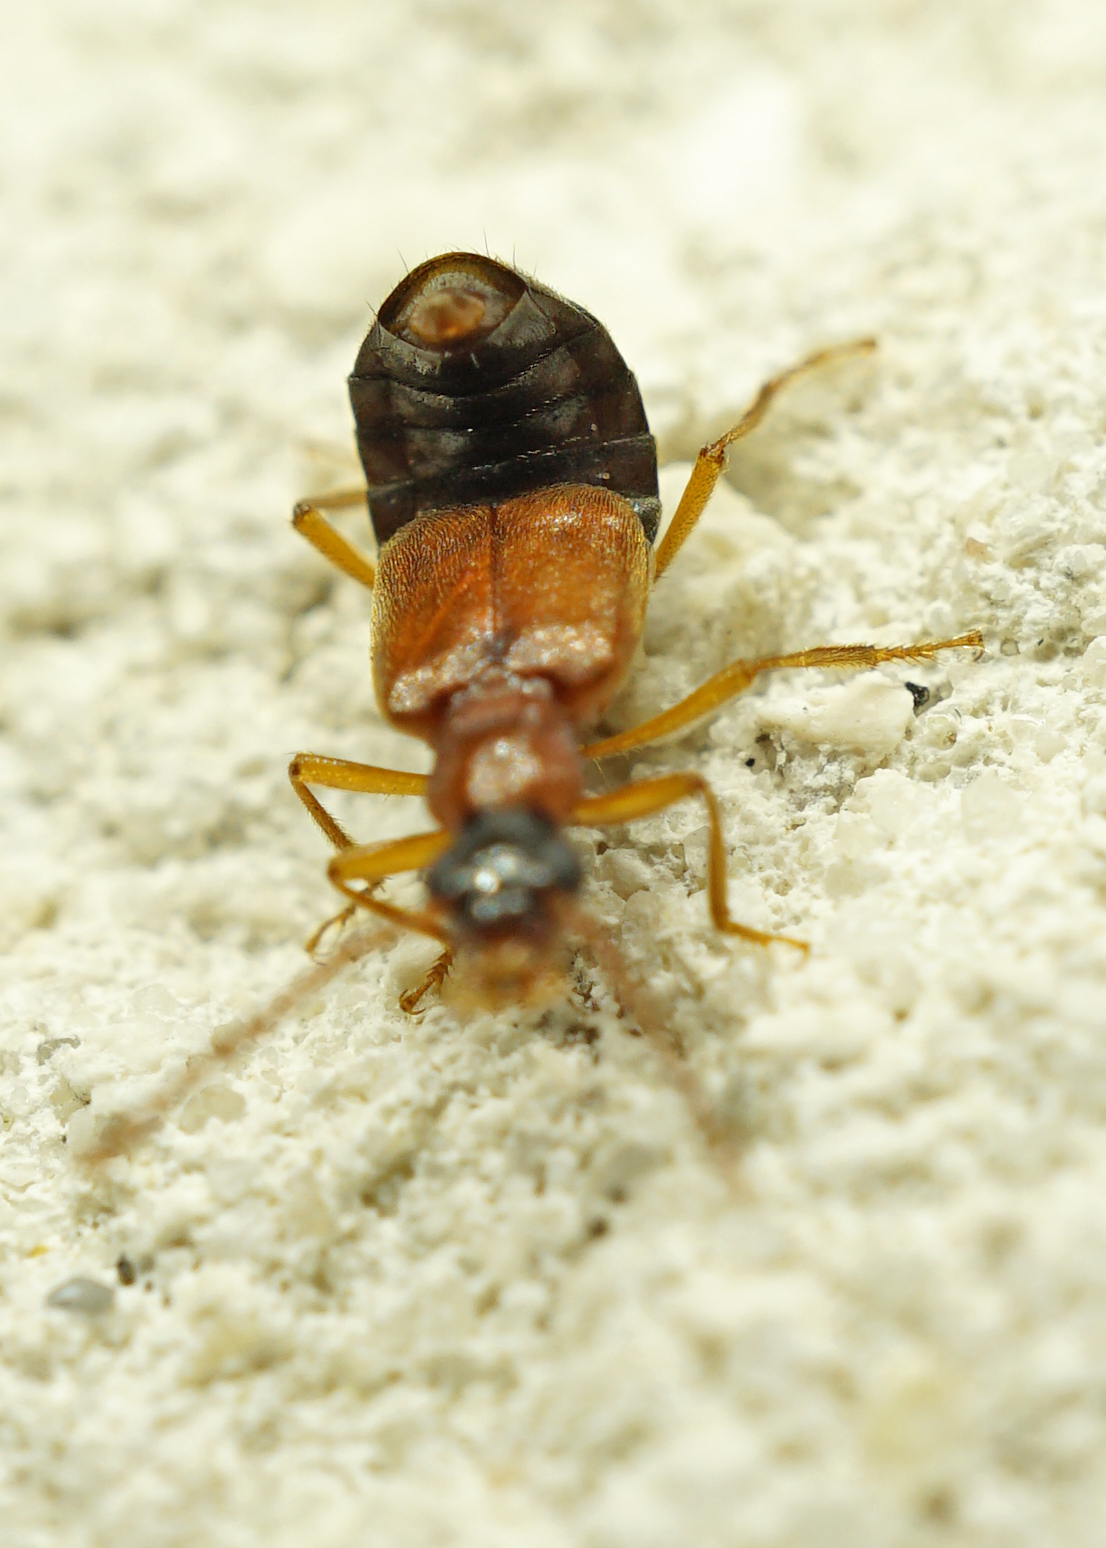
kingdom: Animalia
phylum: Arthropoda
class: Insecta
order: Coleoptera
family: Staphylinidae
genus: Deleaster
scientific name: Deleaster dichrous
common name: Rove beetle
